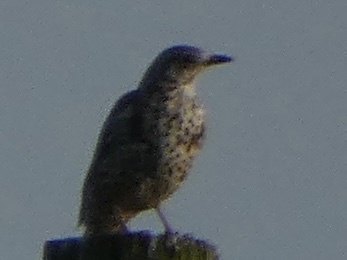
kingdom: Animalia
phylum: Chordata
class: Aves
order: Passeriformes
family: Turdidae
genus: Turdus
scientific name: Turdus viscivorus
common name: Mistle thrush
